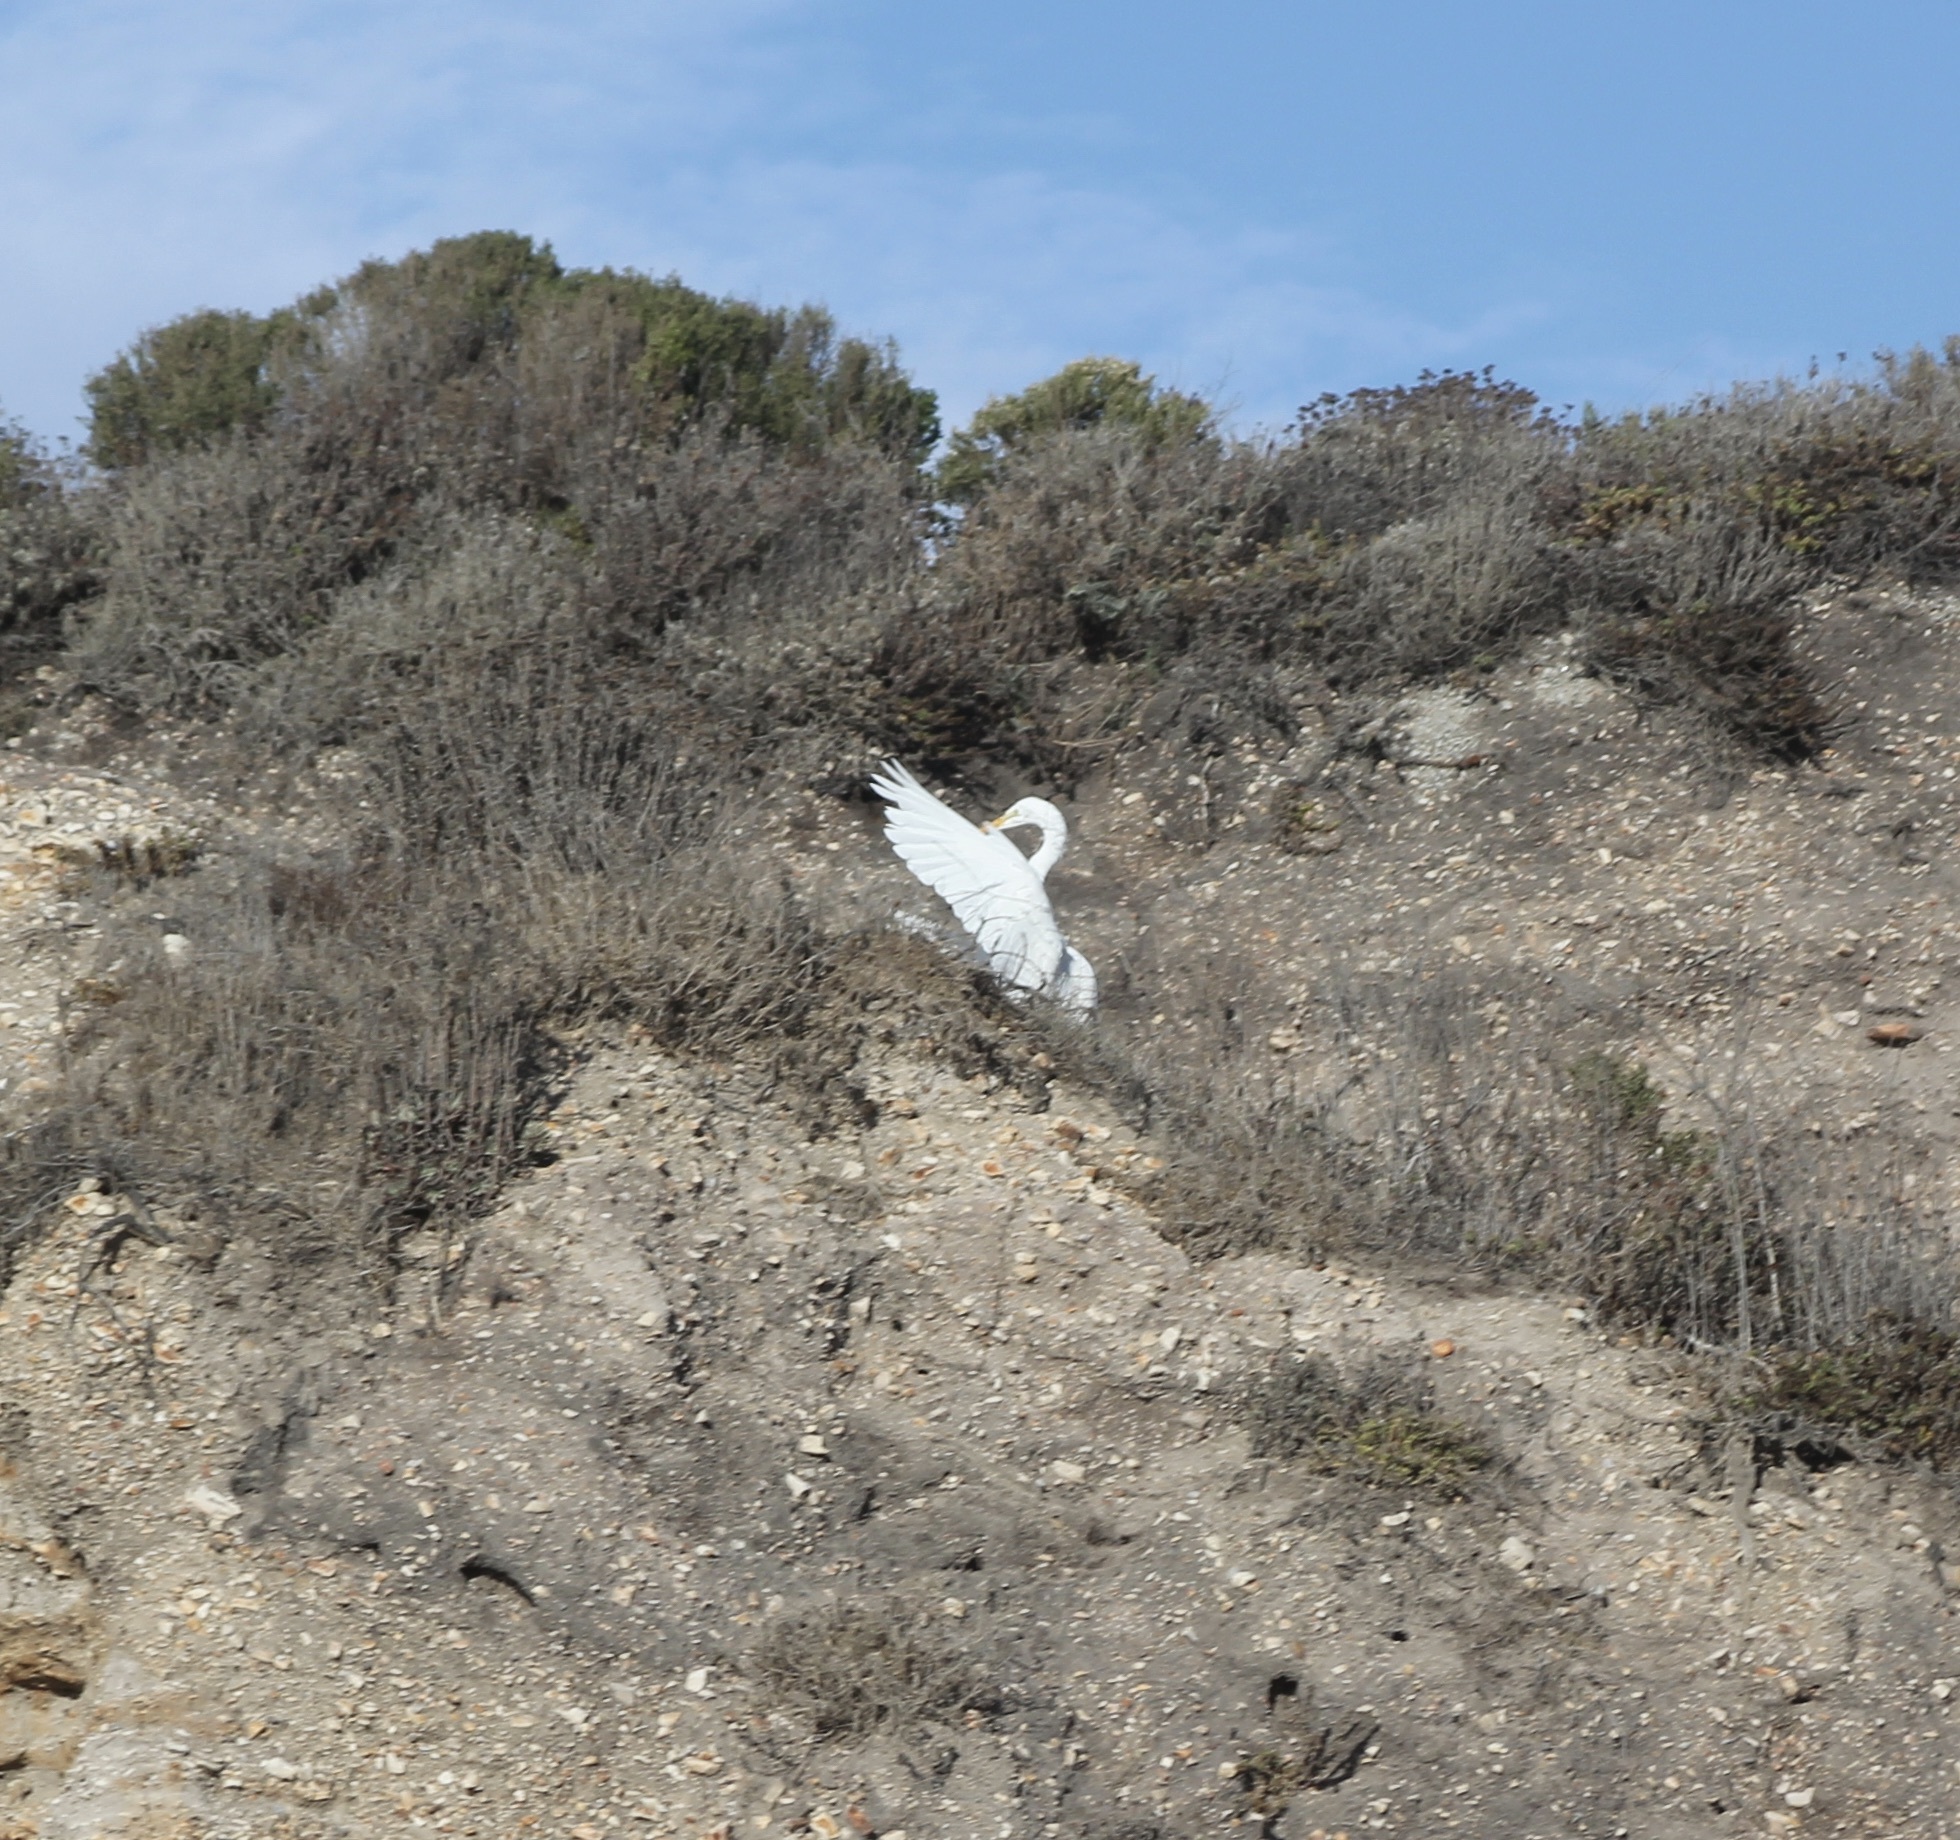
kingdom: Animalia
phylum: Chordata
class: Aves
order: Pelecaniformes
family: Ardeidae
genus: Ardea
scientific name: Ardea alba
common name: Great egret
